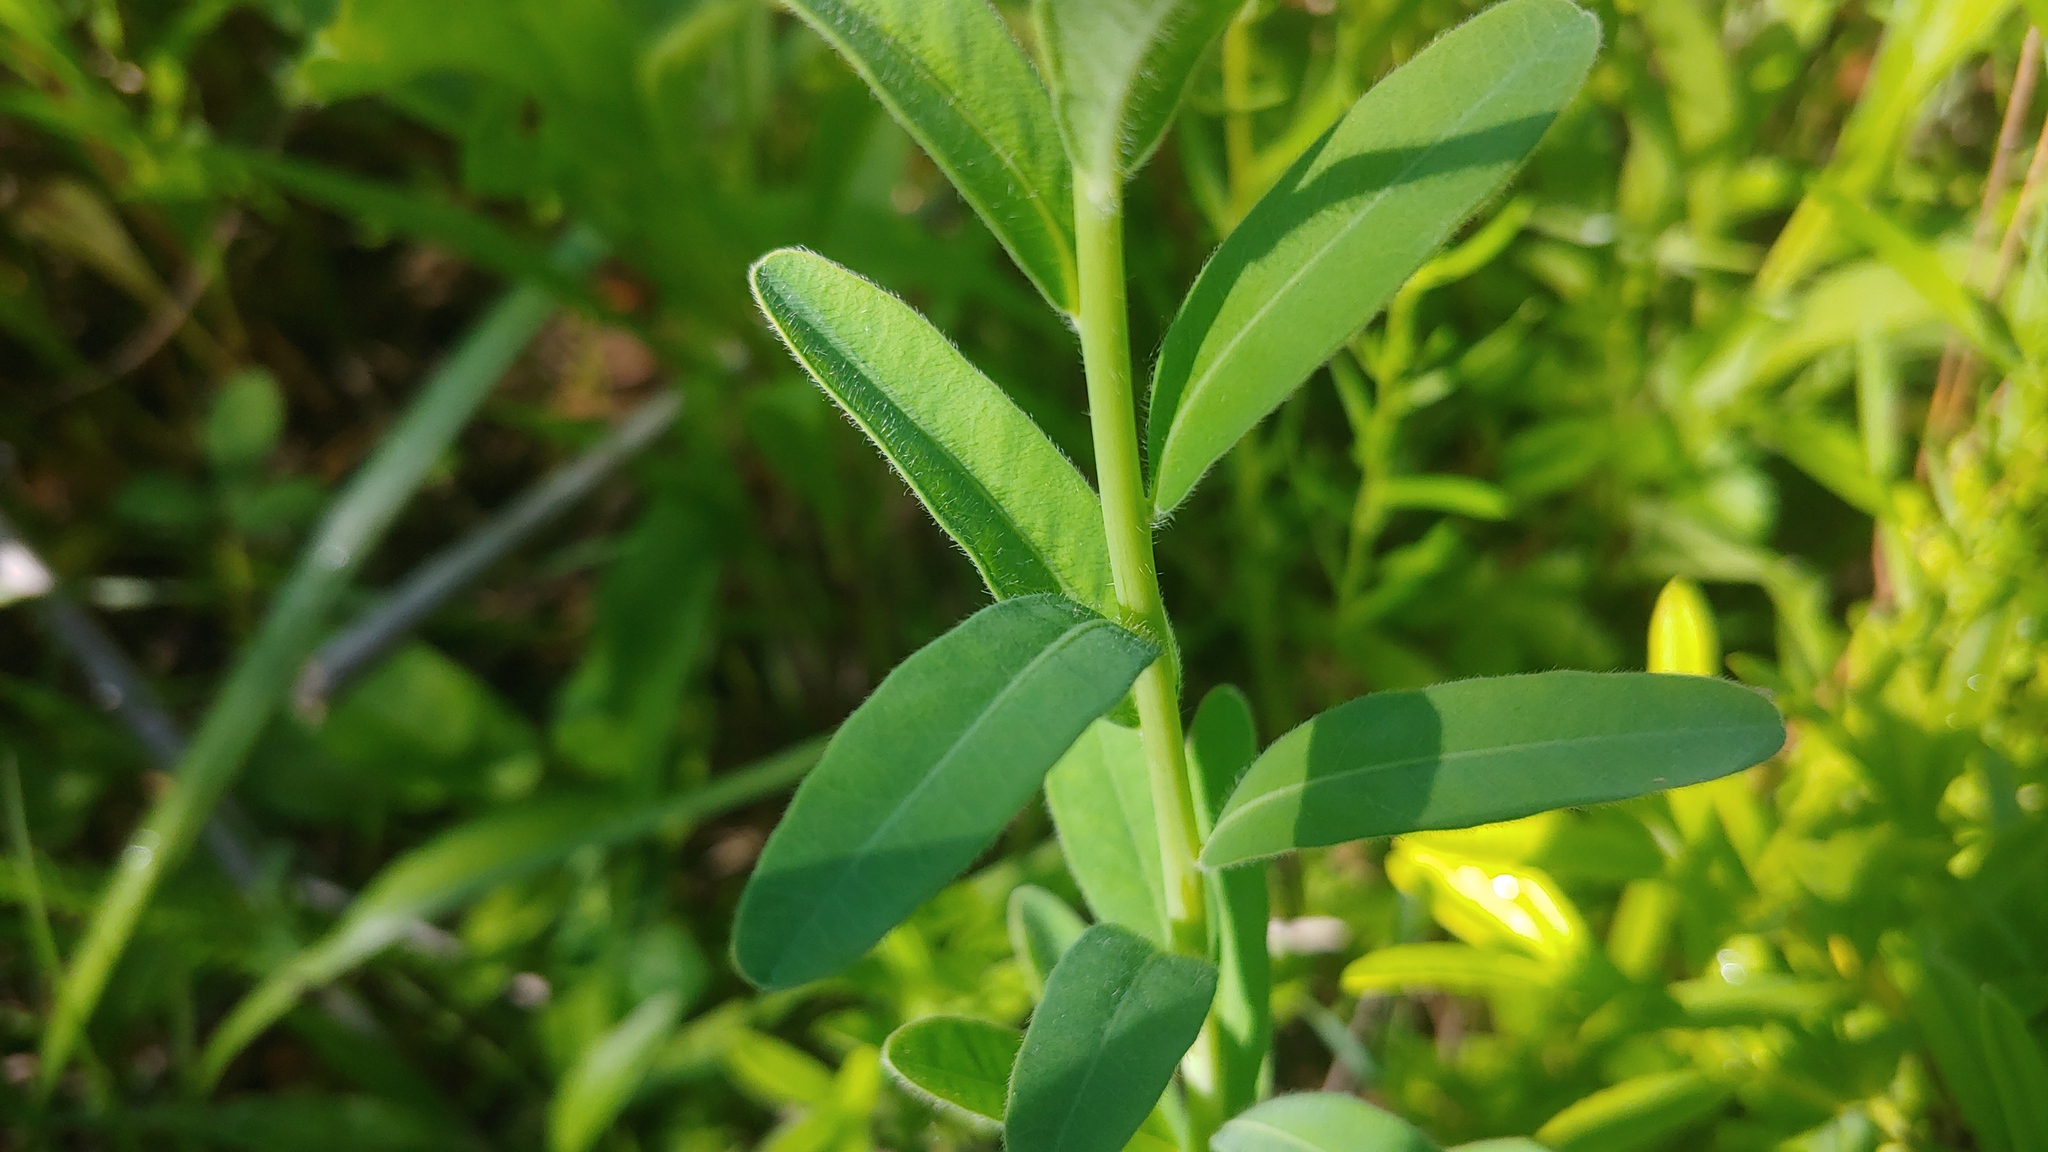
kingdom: Plantae
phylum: Tracheophyta
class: Magnoliopsida
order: Malpighiales
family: Euphorbiaceae
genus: Euphorbia
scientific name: Euphorbia corollata
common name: Flowering spurge
